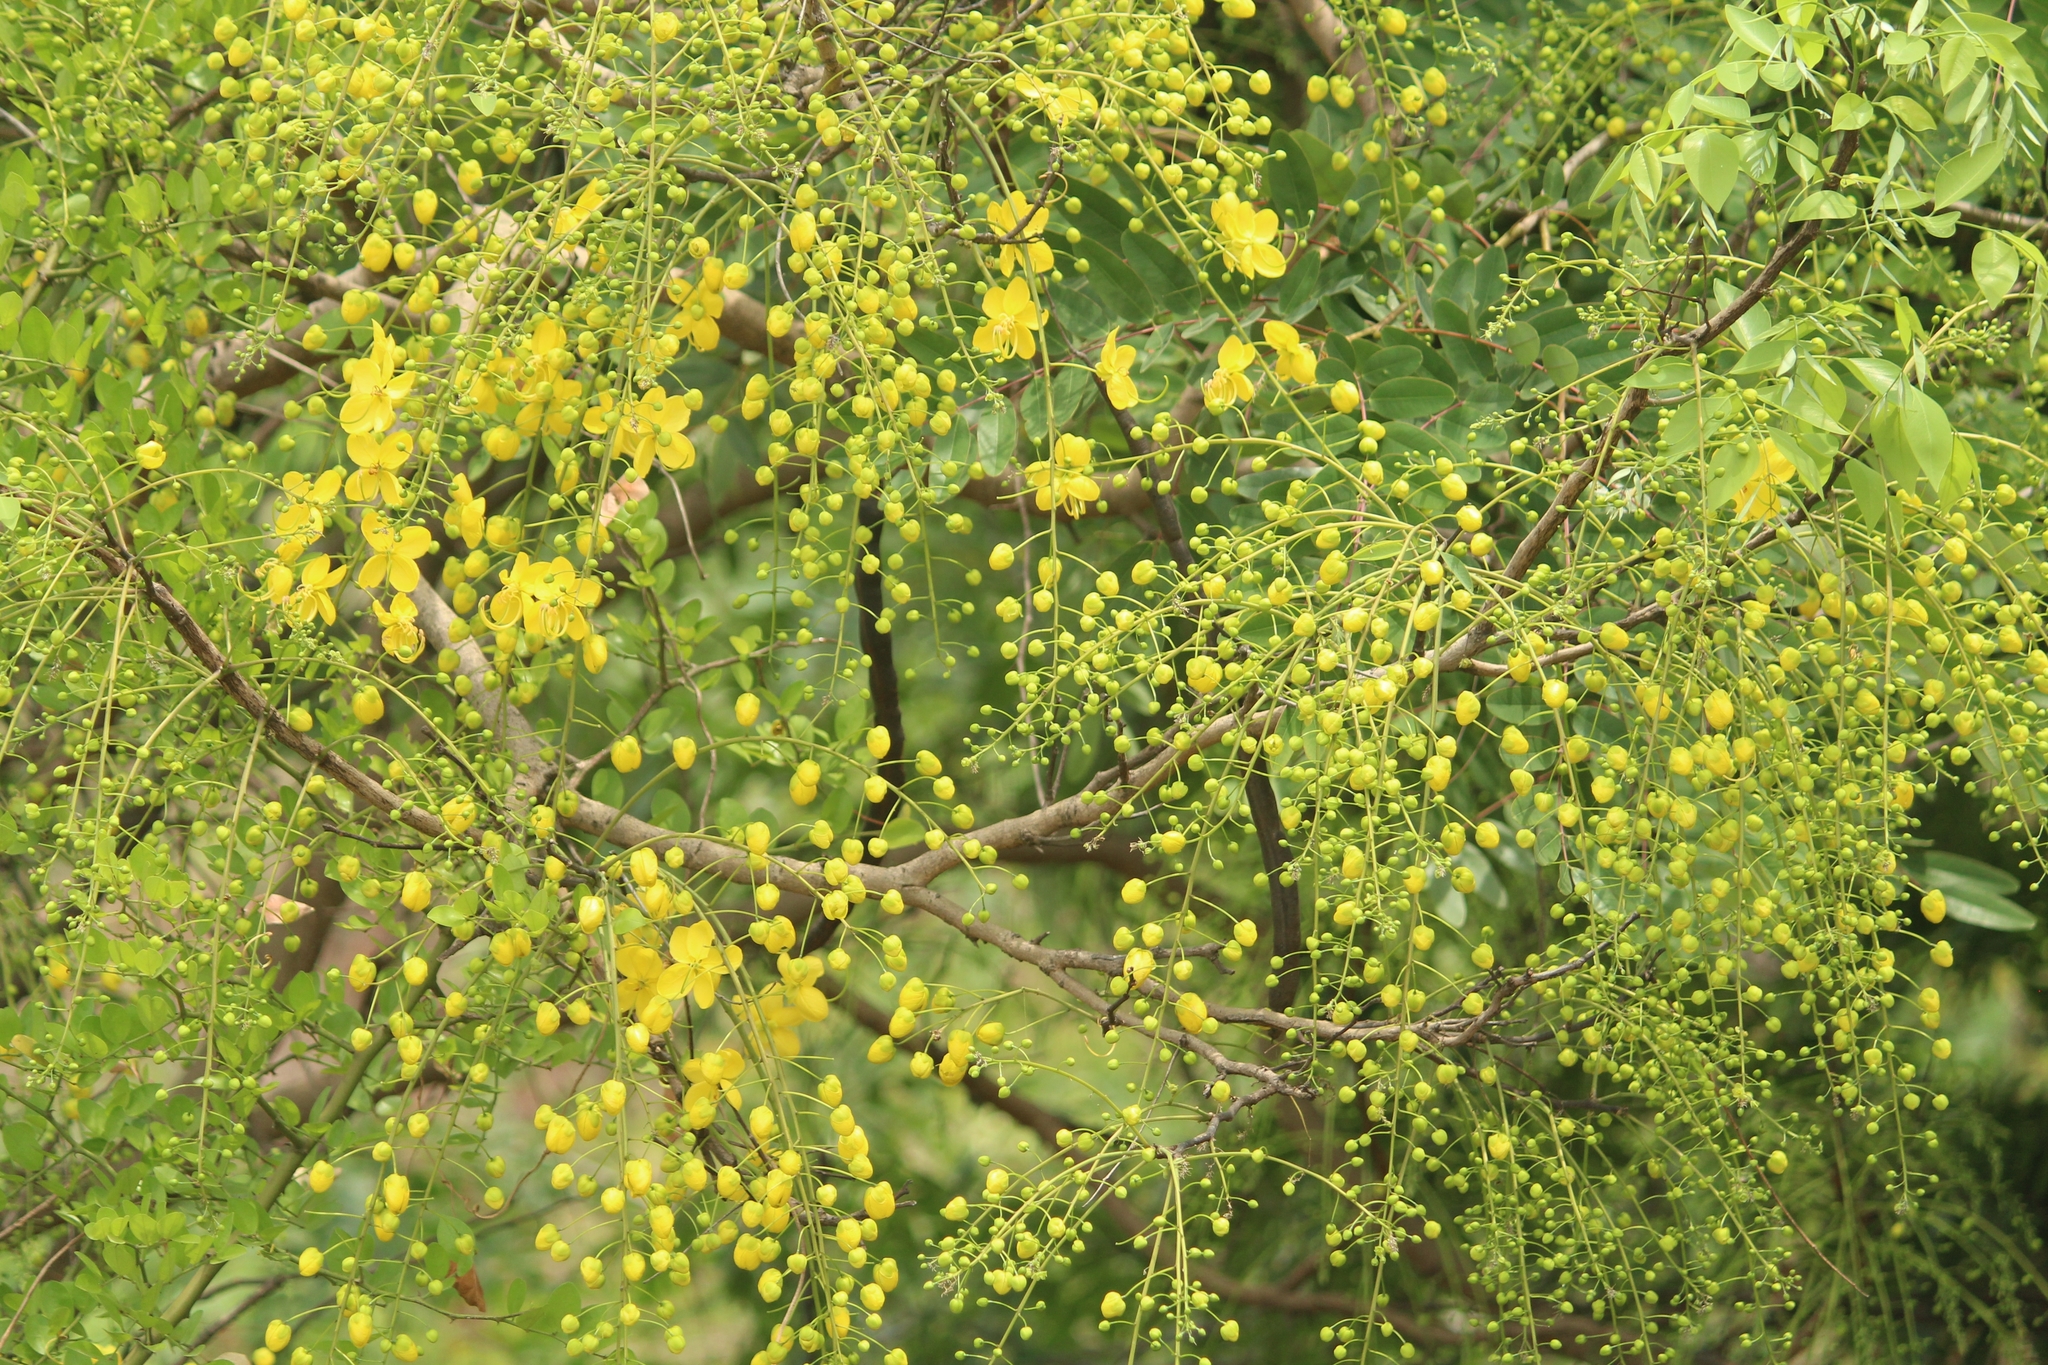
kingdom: Plantae
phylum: Tracheophyta
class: Magnoliopsida
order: Fabales
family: Fabaceae
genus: Cassia
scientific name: Cassia fistula
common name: Golden shower
